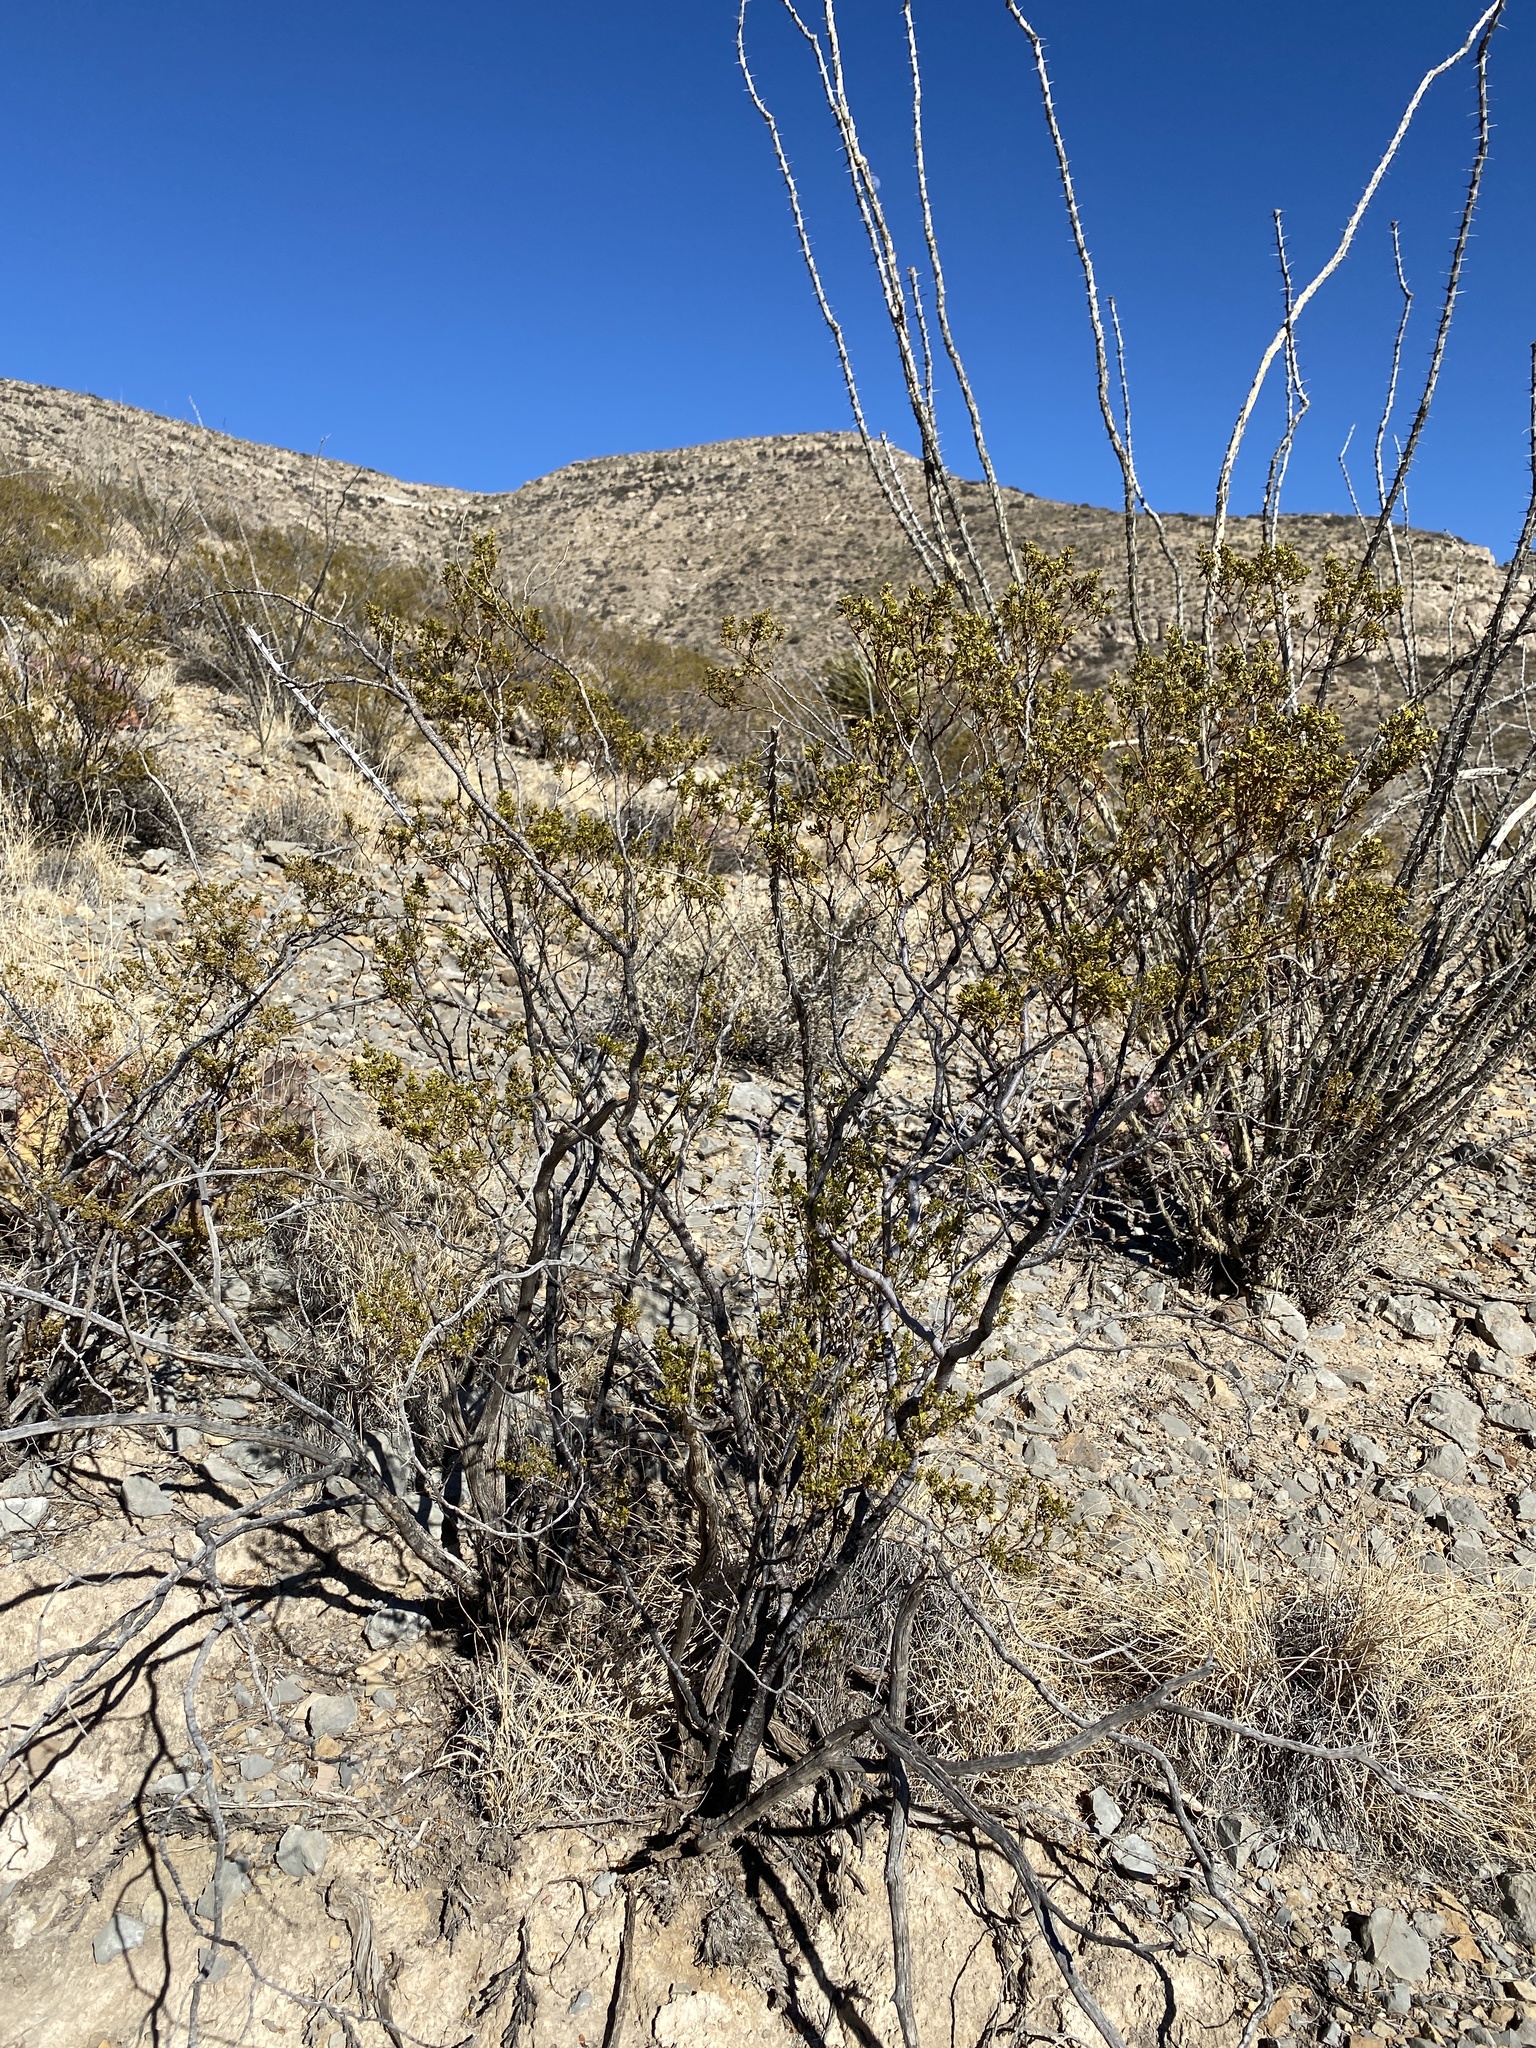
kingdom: Plantae
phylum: Tracheophyta
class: Magnoliopsida
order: Zygophyllales
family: Zygophyllaceae
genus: Larrea
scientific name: Larrea tridentata
